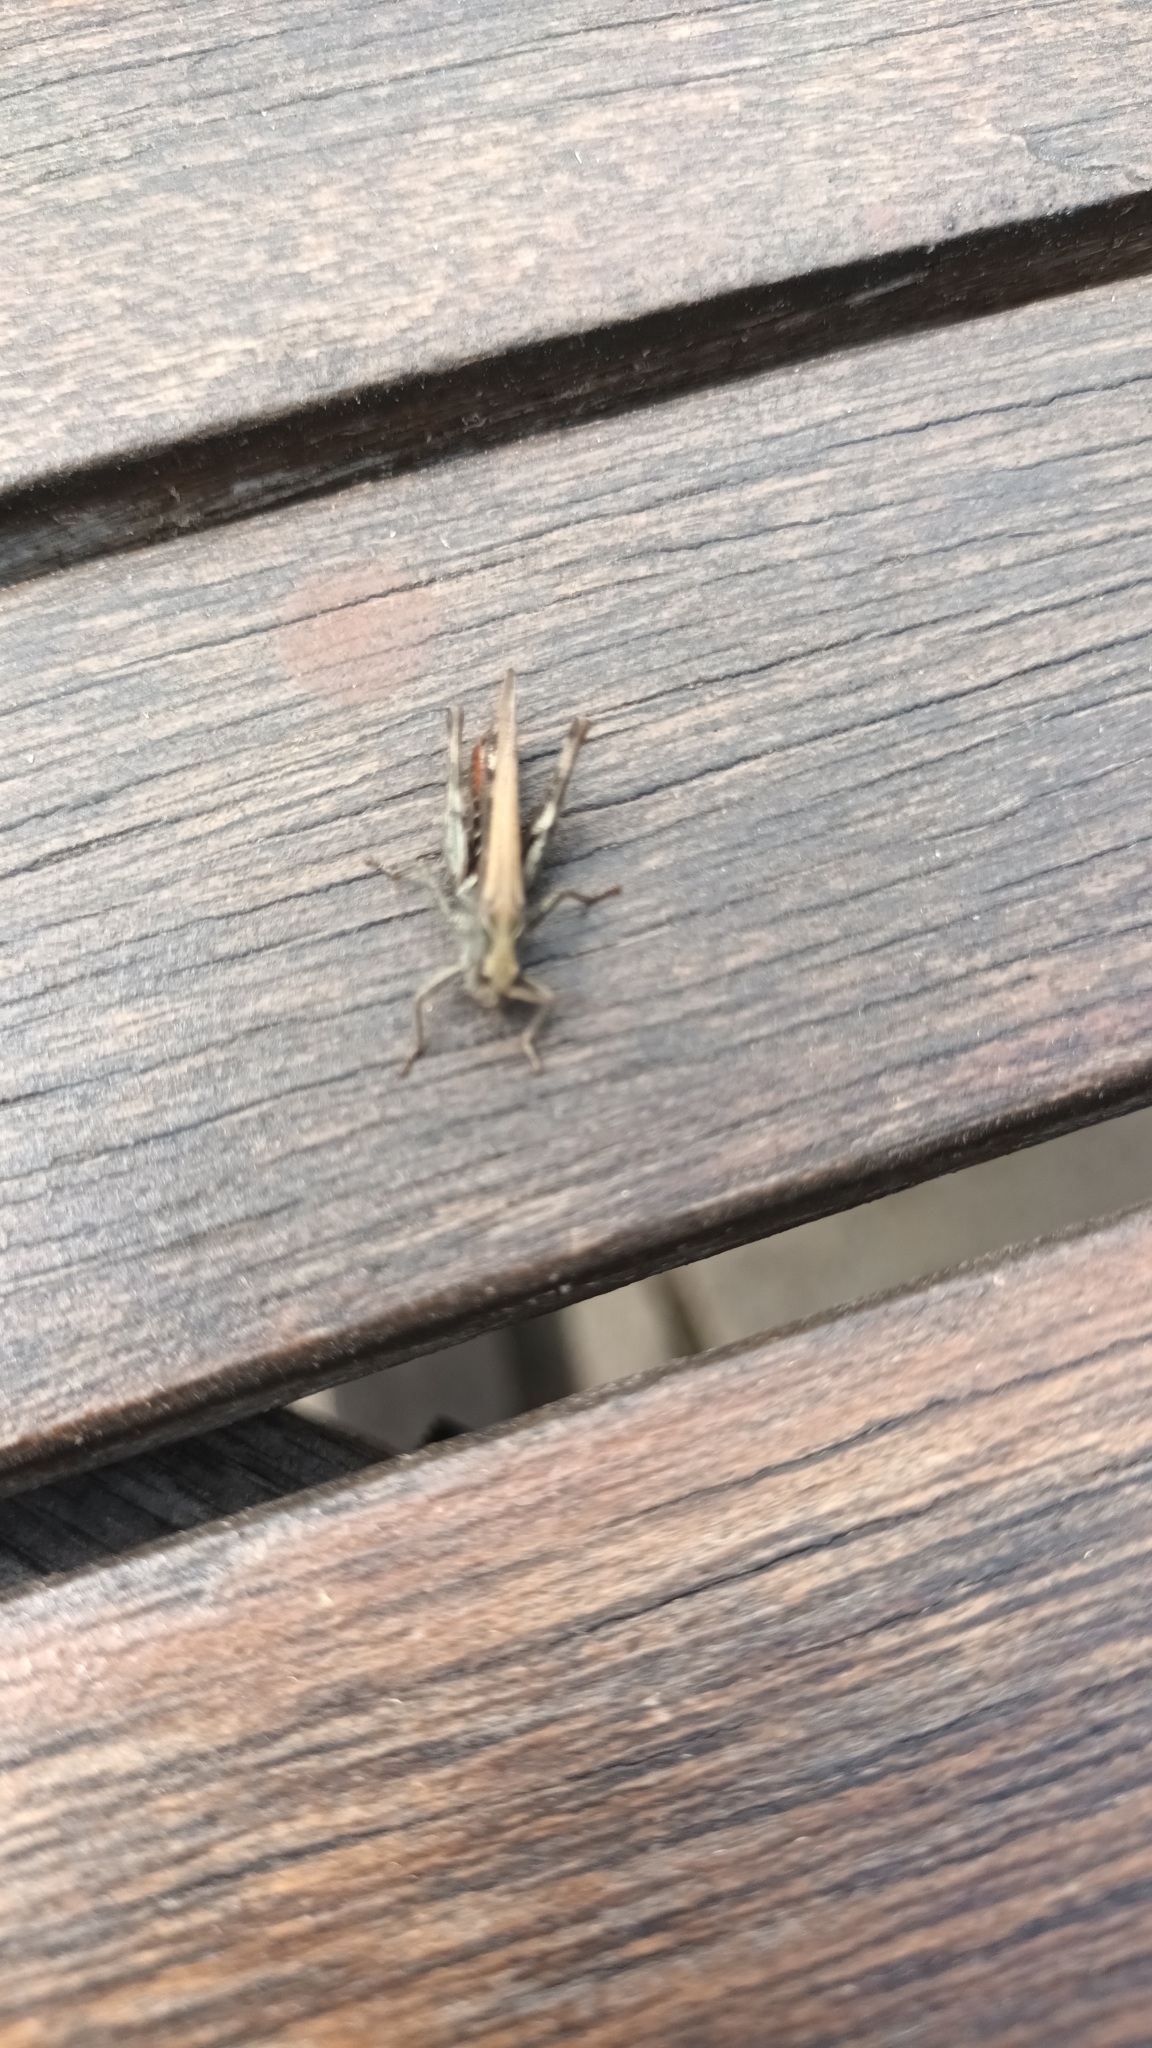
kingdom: Animalia
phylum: Arthropoda
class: Insecta
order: Orthoptera
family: Acrididae
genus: Chorthippus
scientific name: Chorthippus brunneus
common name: Field grasshopper
